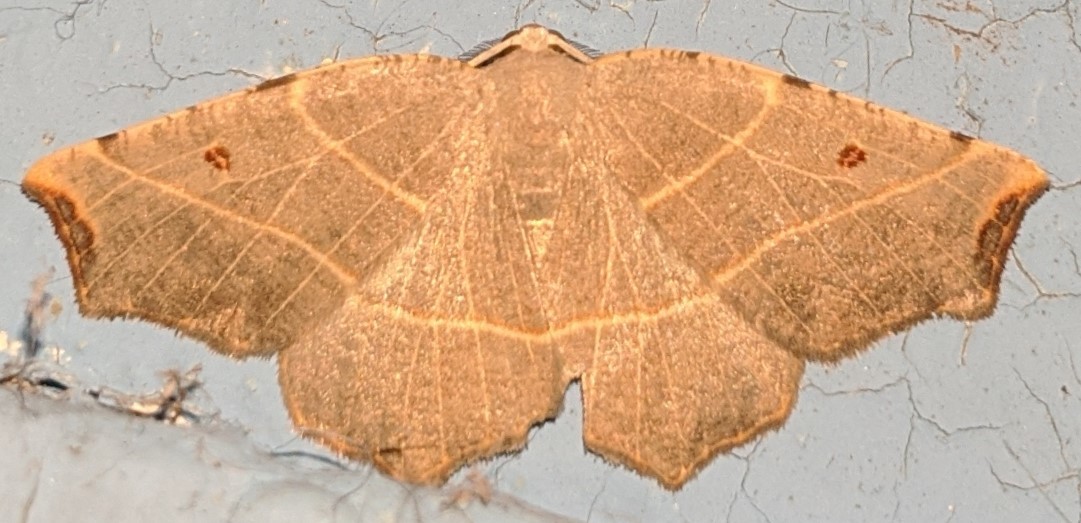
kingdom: Animalia
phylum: Arthropoda
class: Insecta
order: Lepidoptera
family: Geometridae
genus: Metanema
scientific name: Metanema inatomaria
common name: Pale metanema
